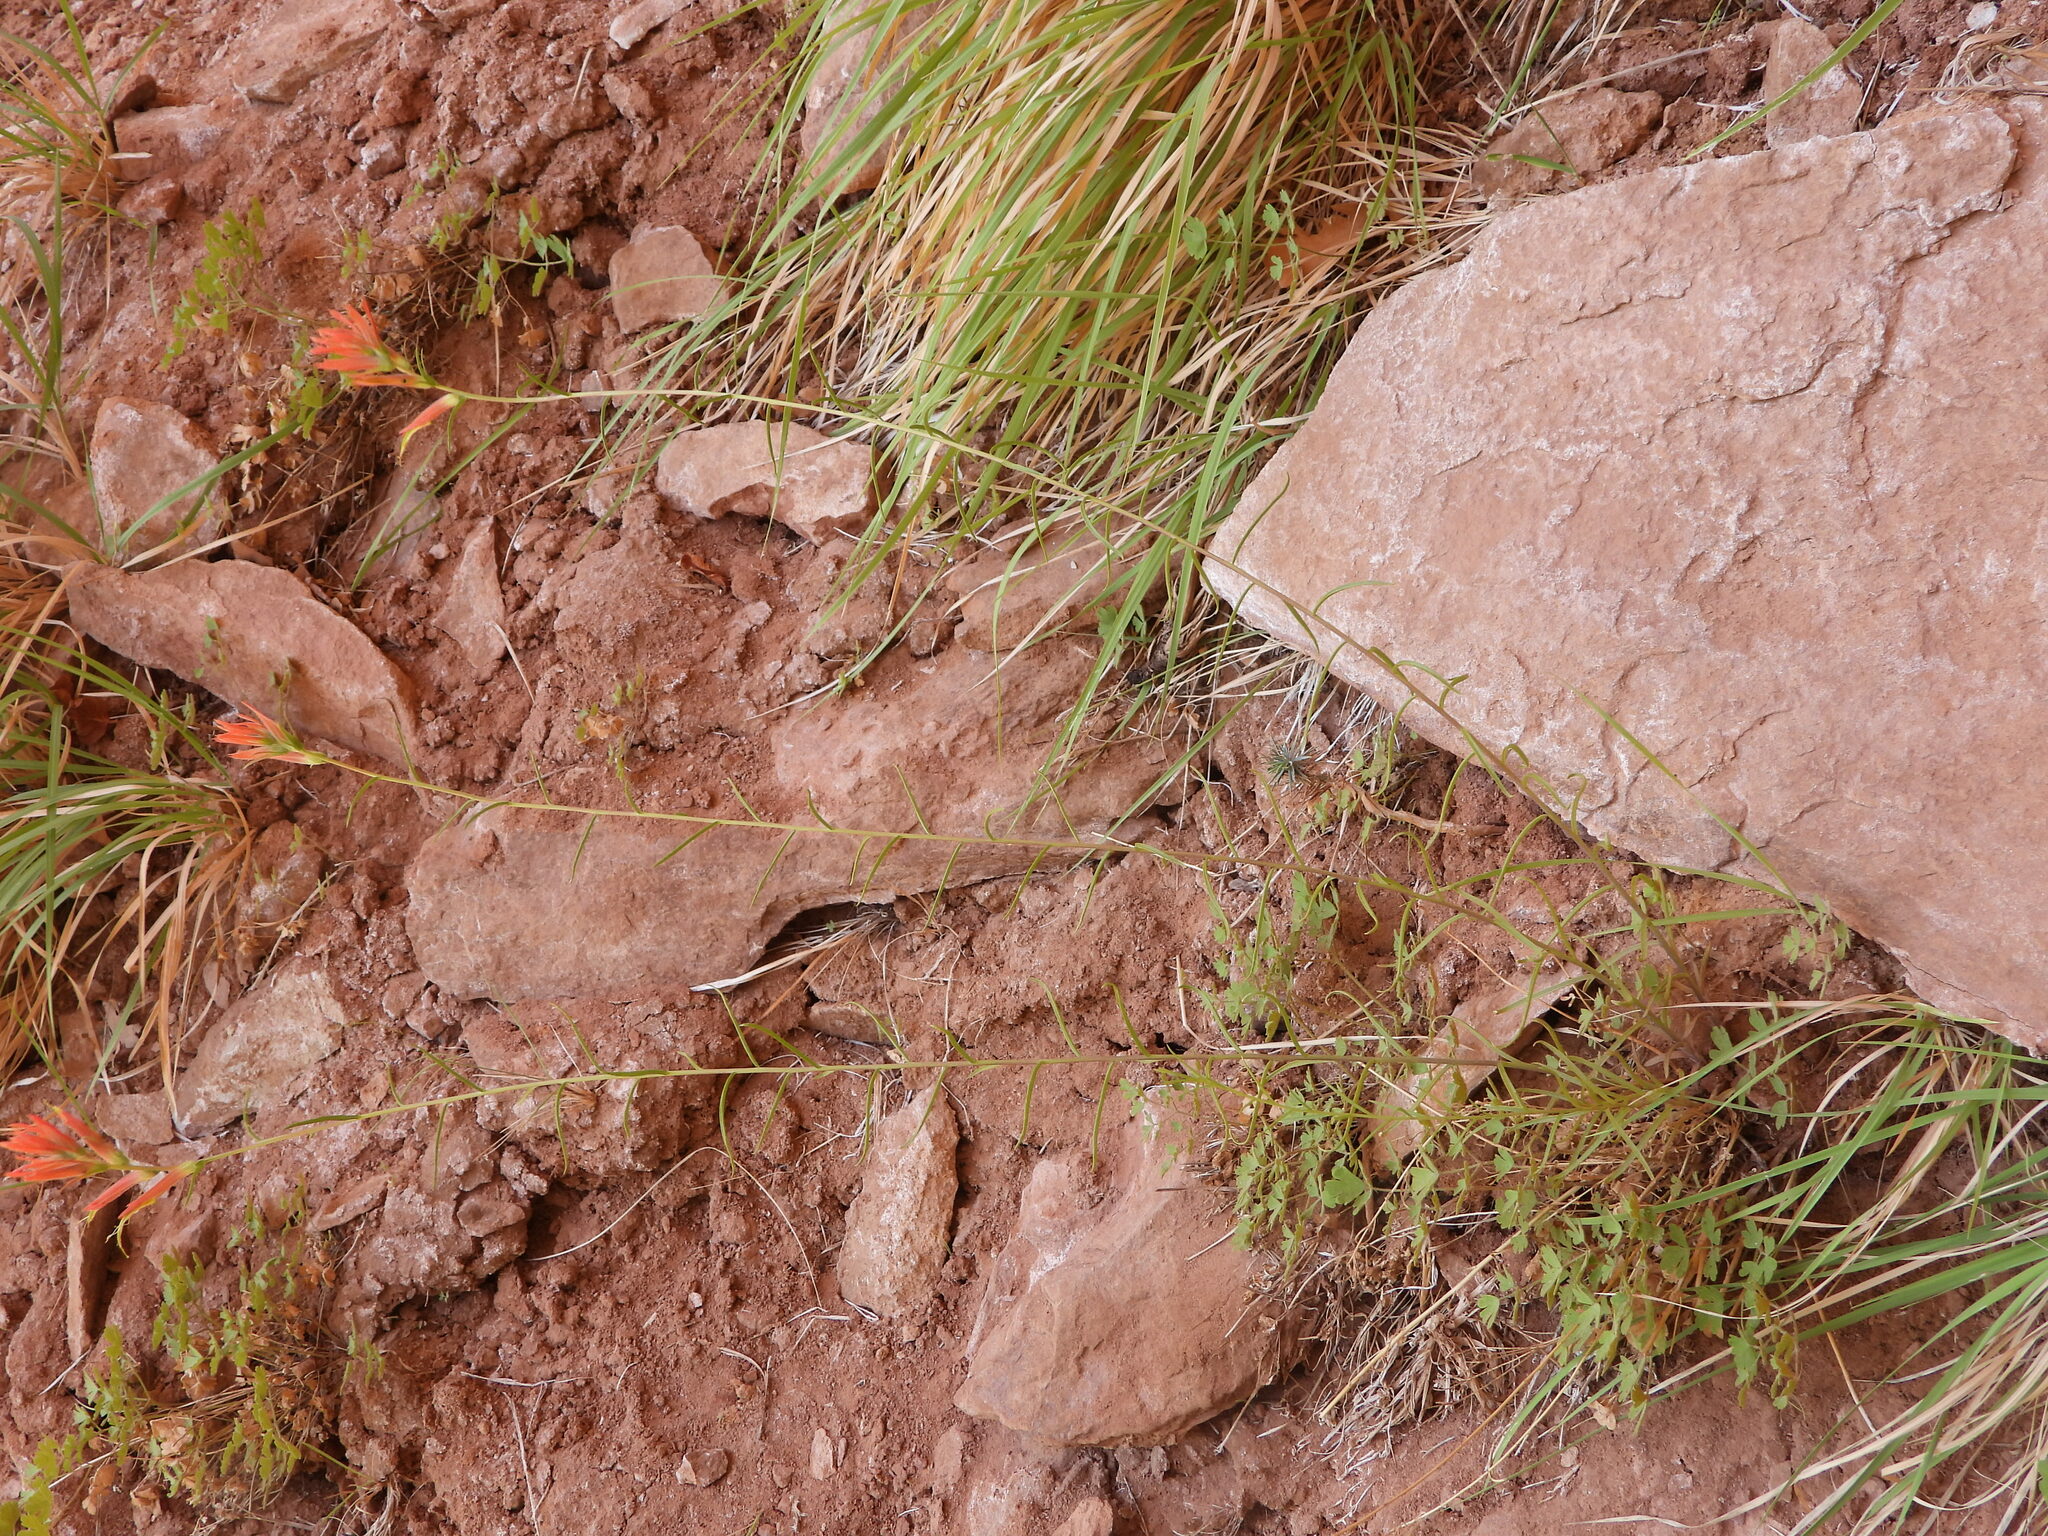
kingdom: Plantae
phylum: Tracheophyta
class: Magnoliopsida
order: Lamiales
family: Orobanchaceae
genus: Castilleja
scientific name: Castilleja linariifolia
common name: Wyoming paintbrush
